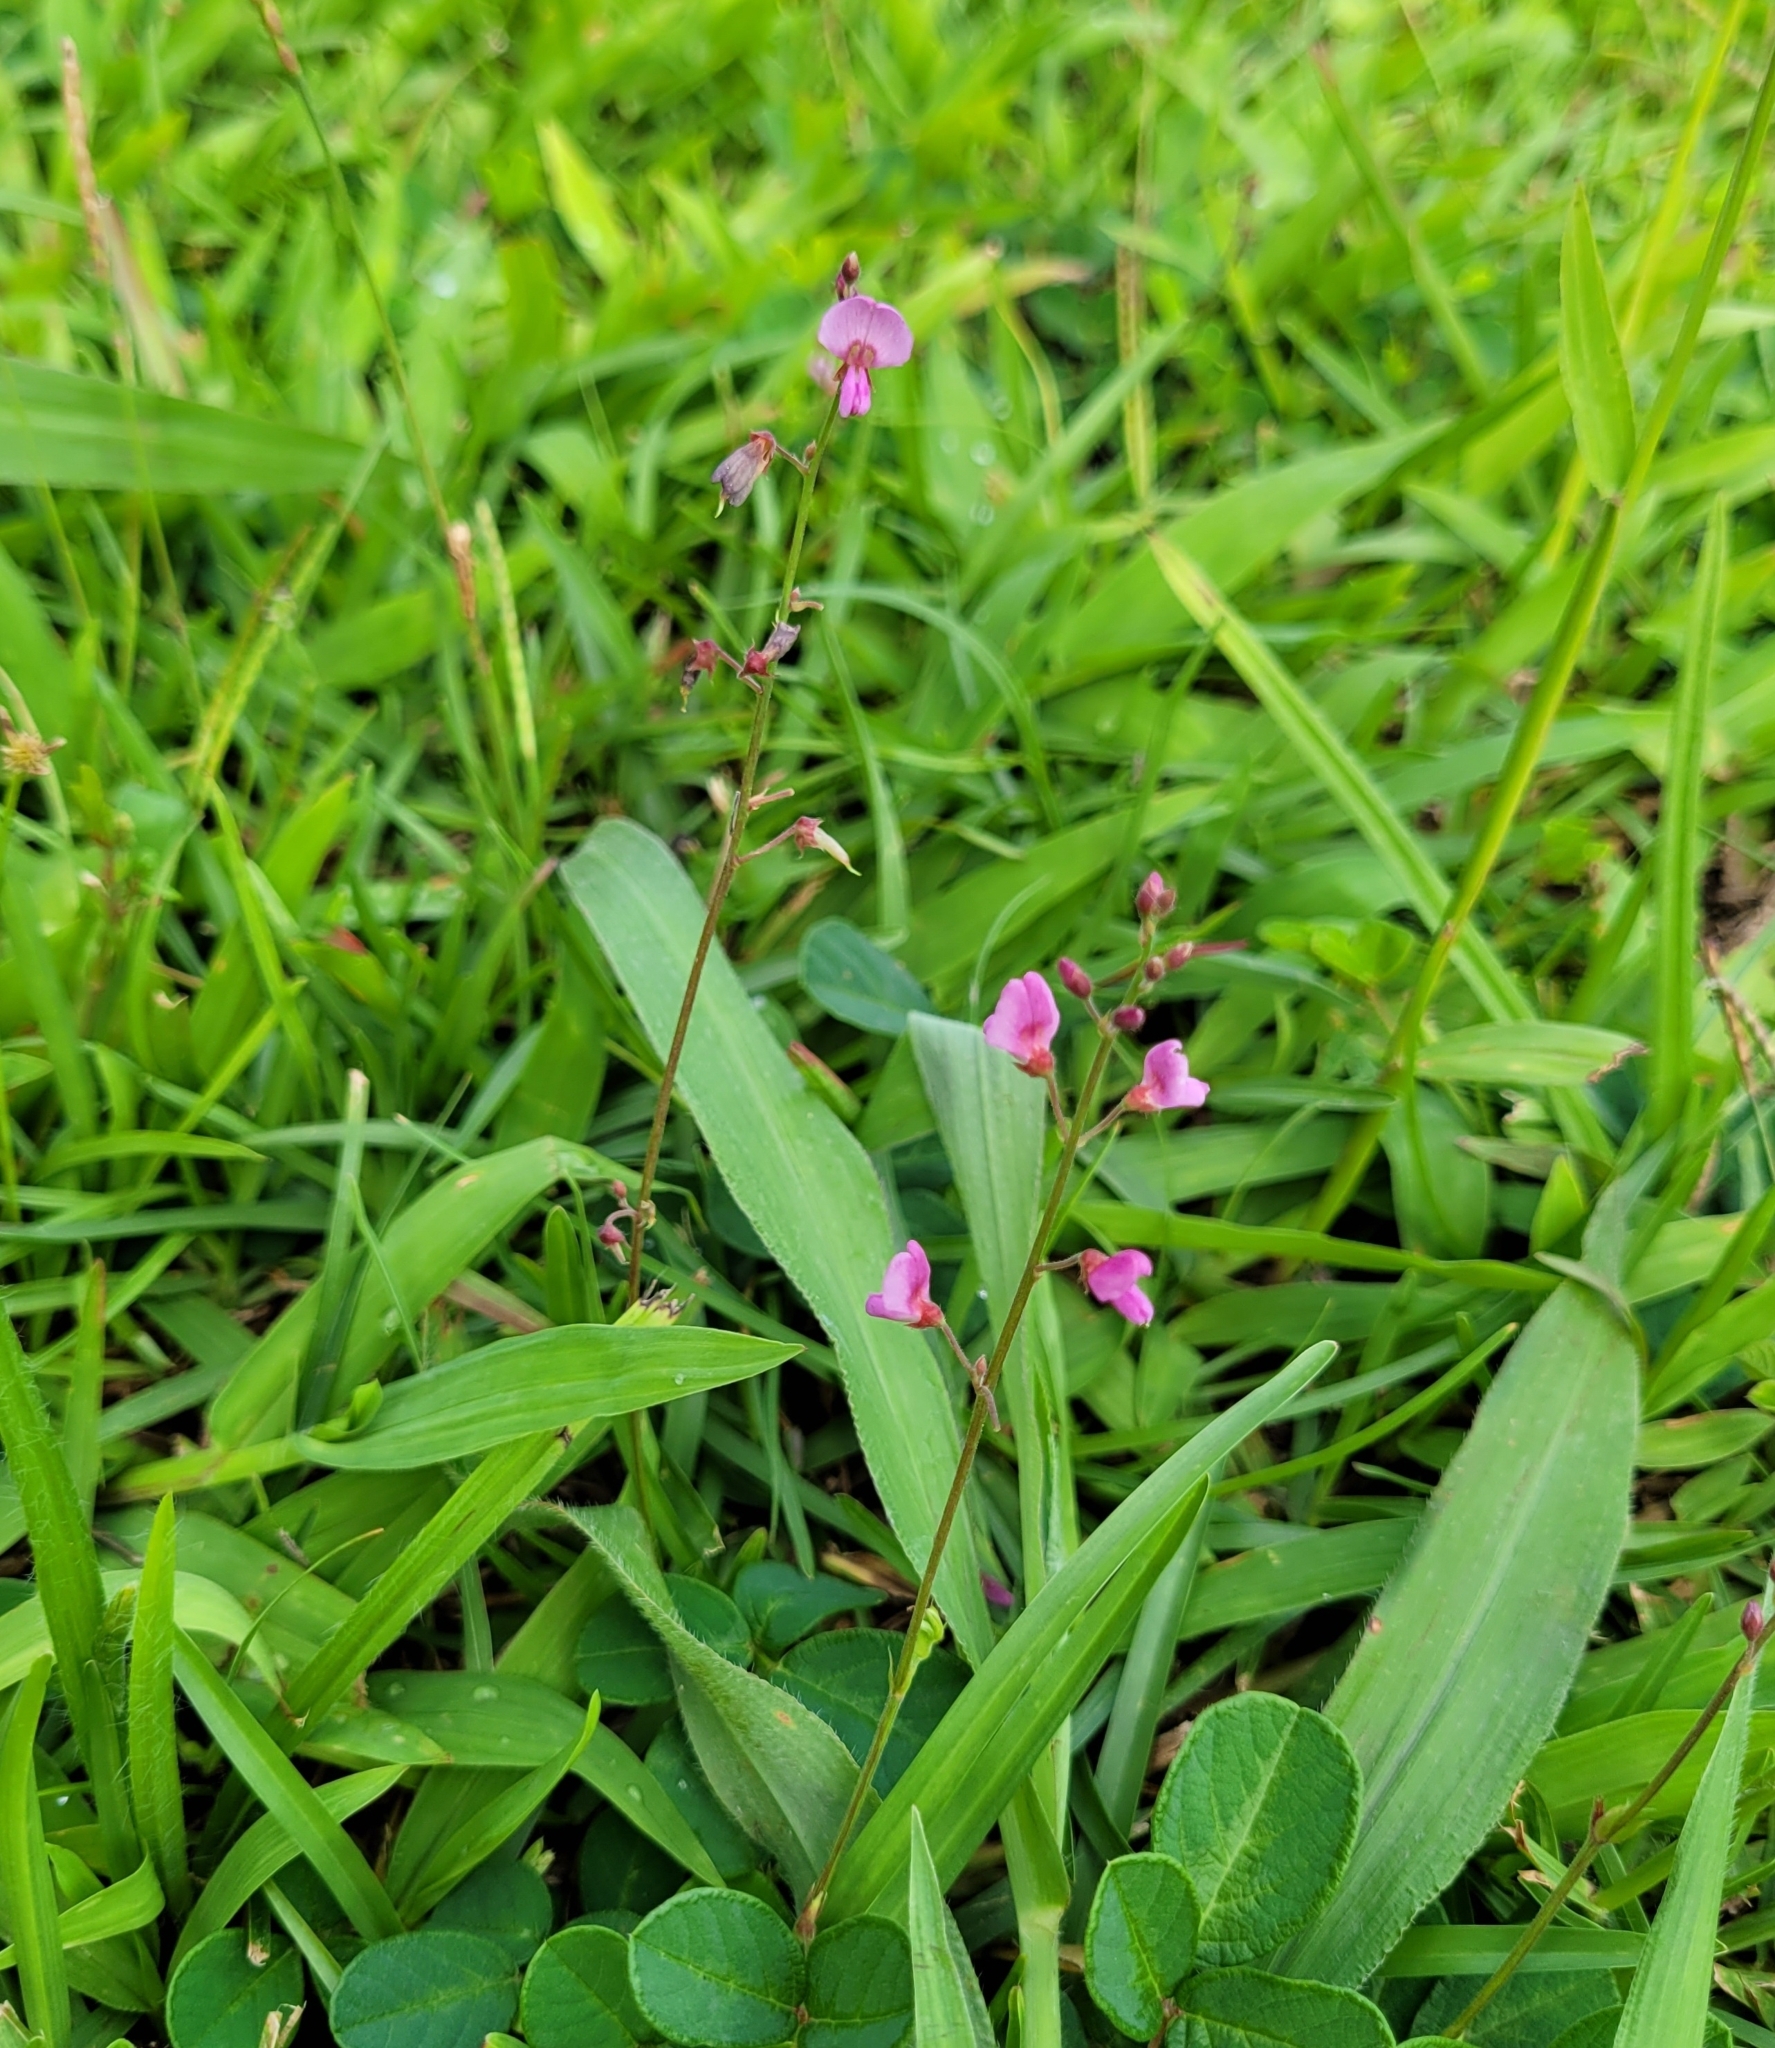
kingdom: Plantae
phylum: Tracheophyta
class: Magnoliopsida
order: Fabales
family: Fabaceae
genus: Desmodium
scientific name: Desmodium incanum
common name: Tickclover
